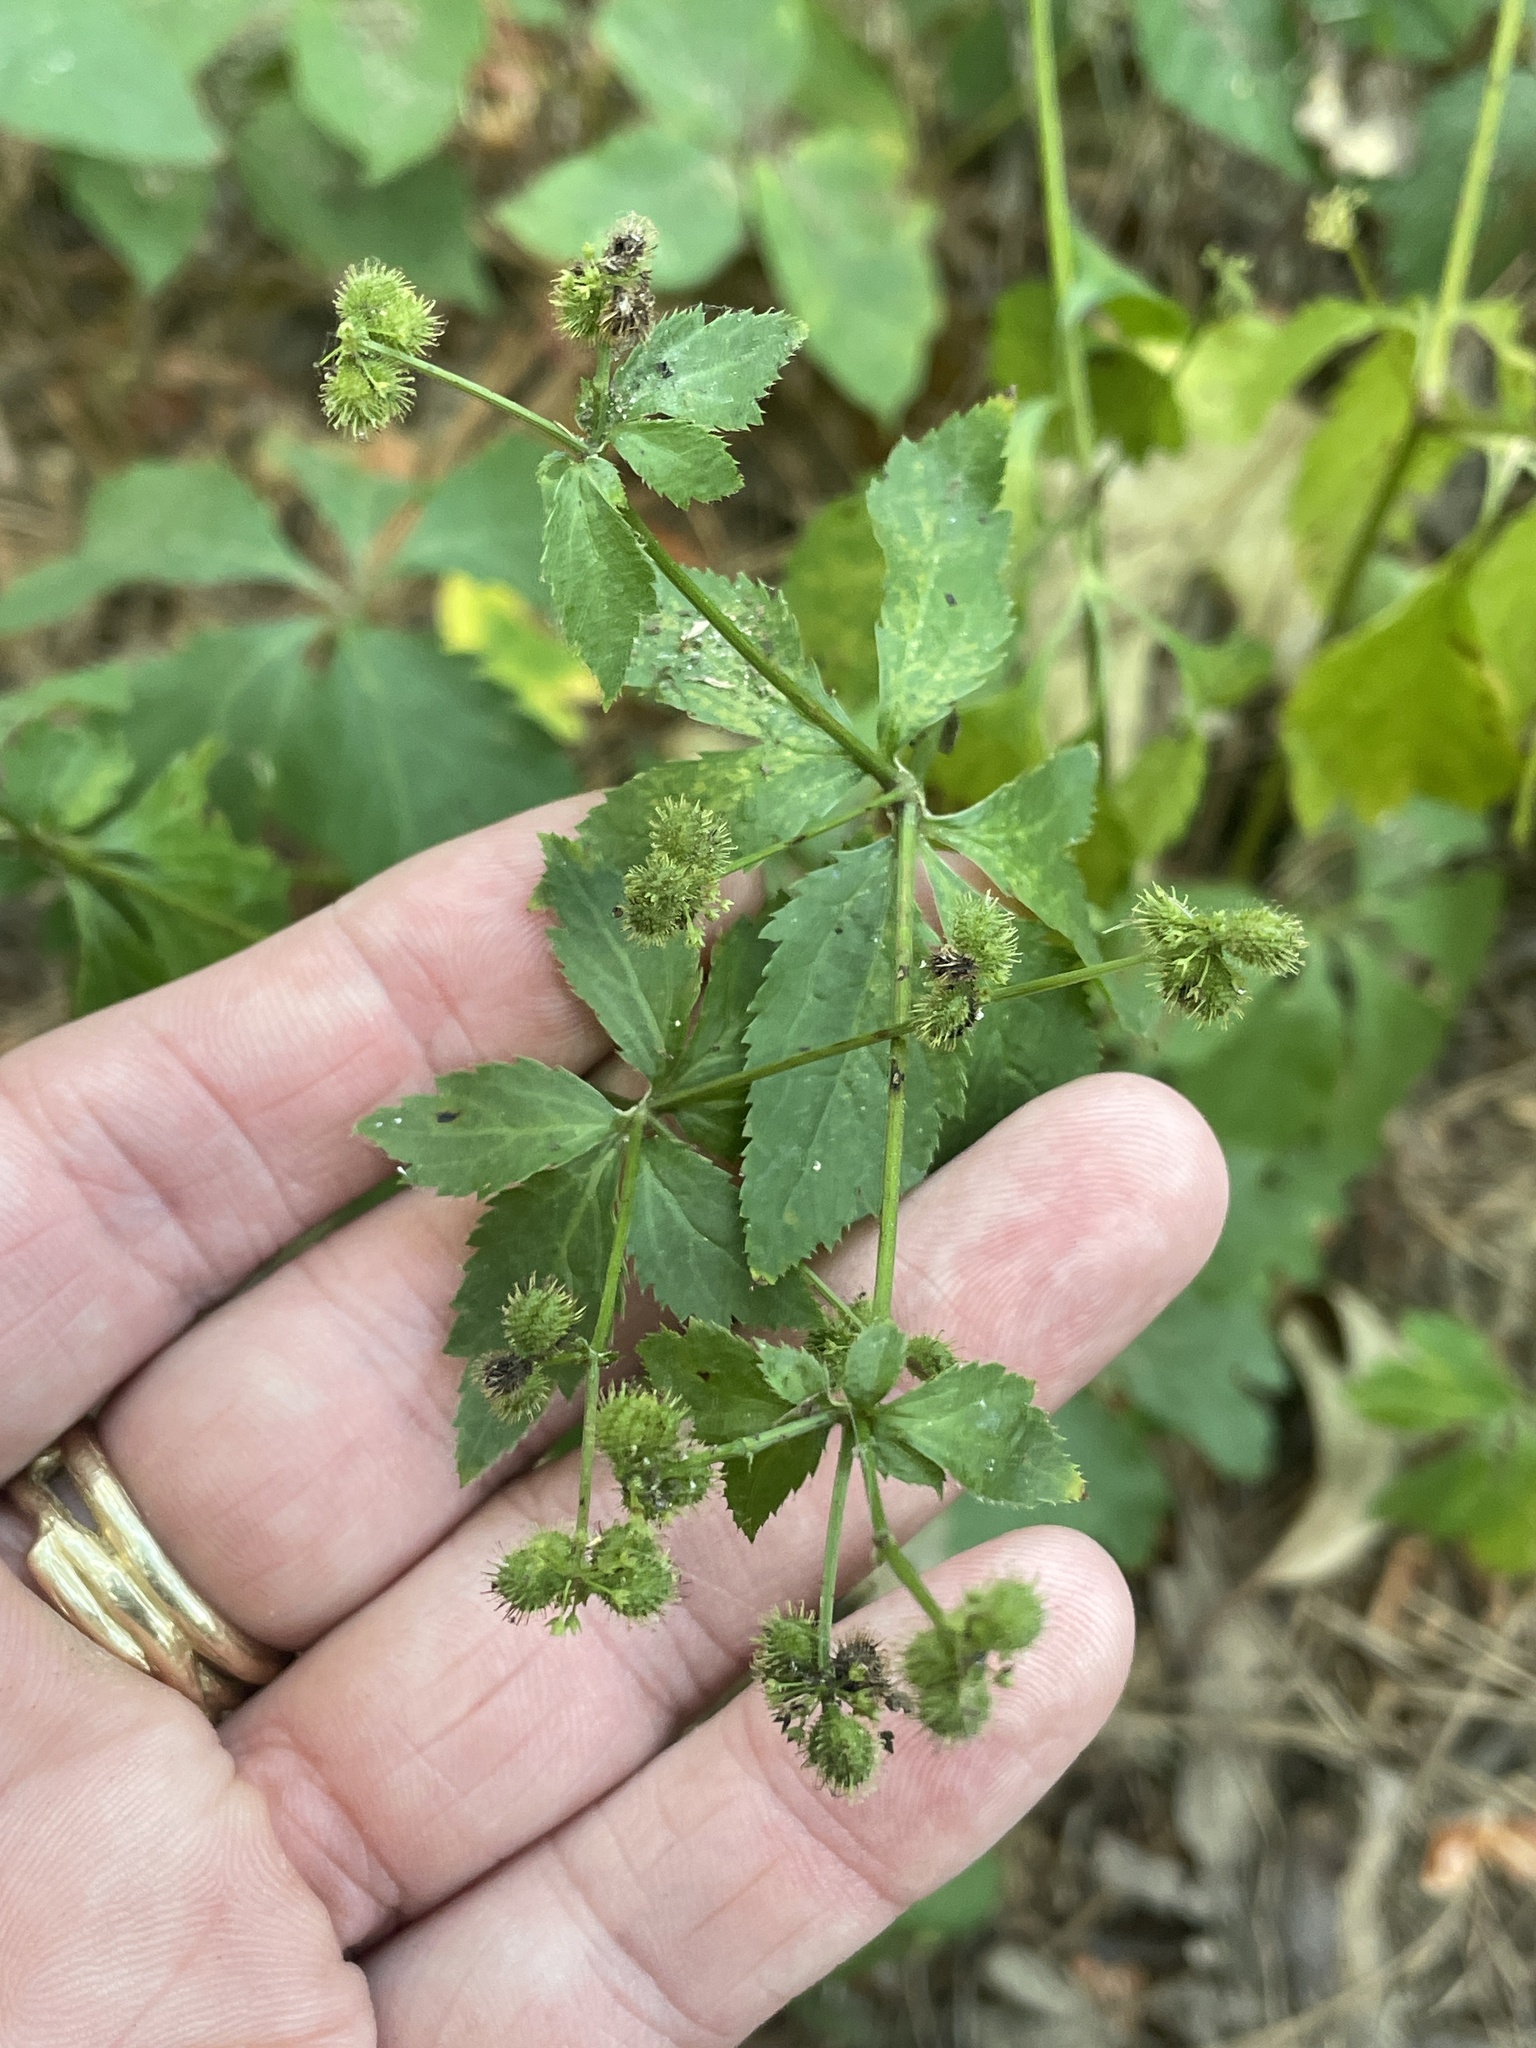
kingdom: Plantae
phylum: Tracheophyta
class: Magnoliopsida
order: Apiales
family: Apiaceae
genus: Sanicula
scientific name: Sanicula canadensis
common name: Canada sanicle
